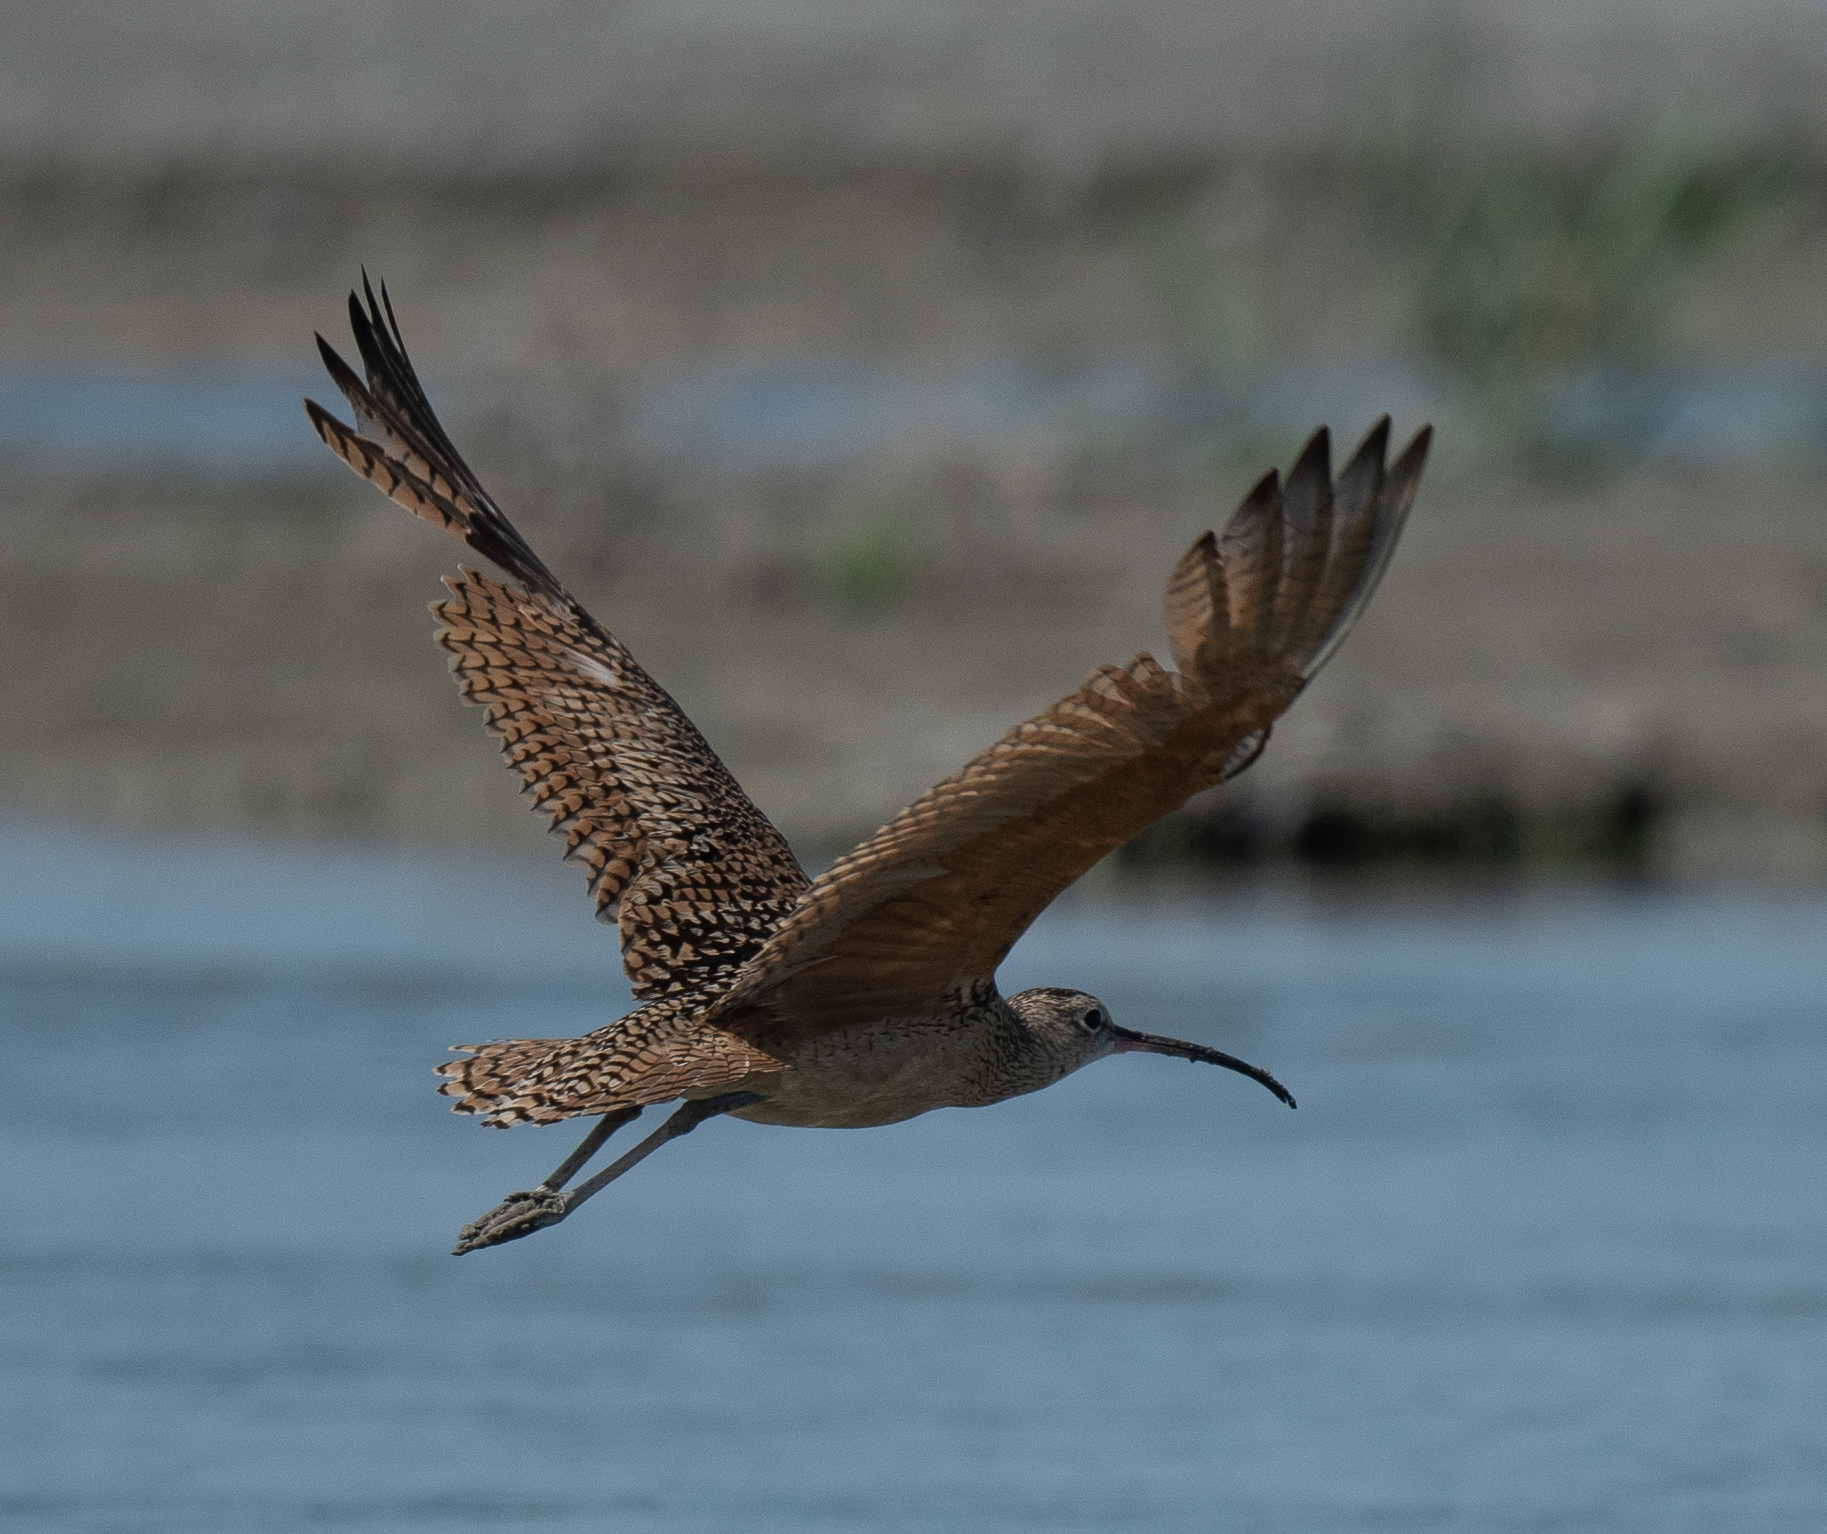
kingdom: Animalia
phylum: Chordata
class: Aves
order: Charadriiformes
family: Scolopacidae
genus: Numenius
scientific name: Numenius americanus
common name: Long-billed curlew
